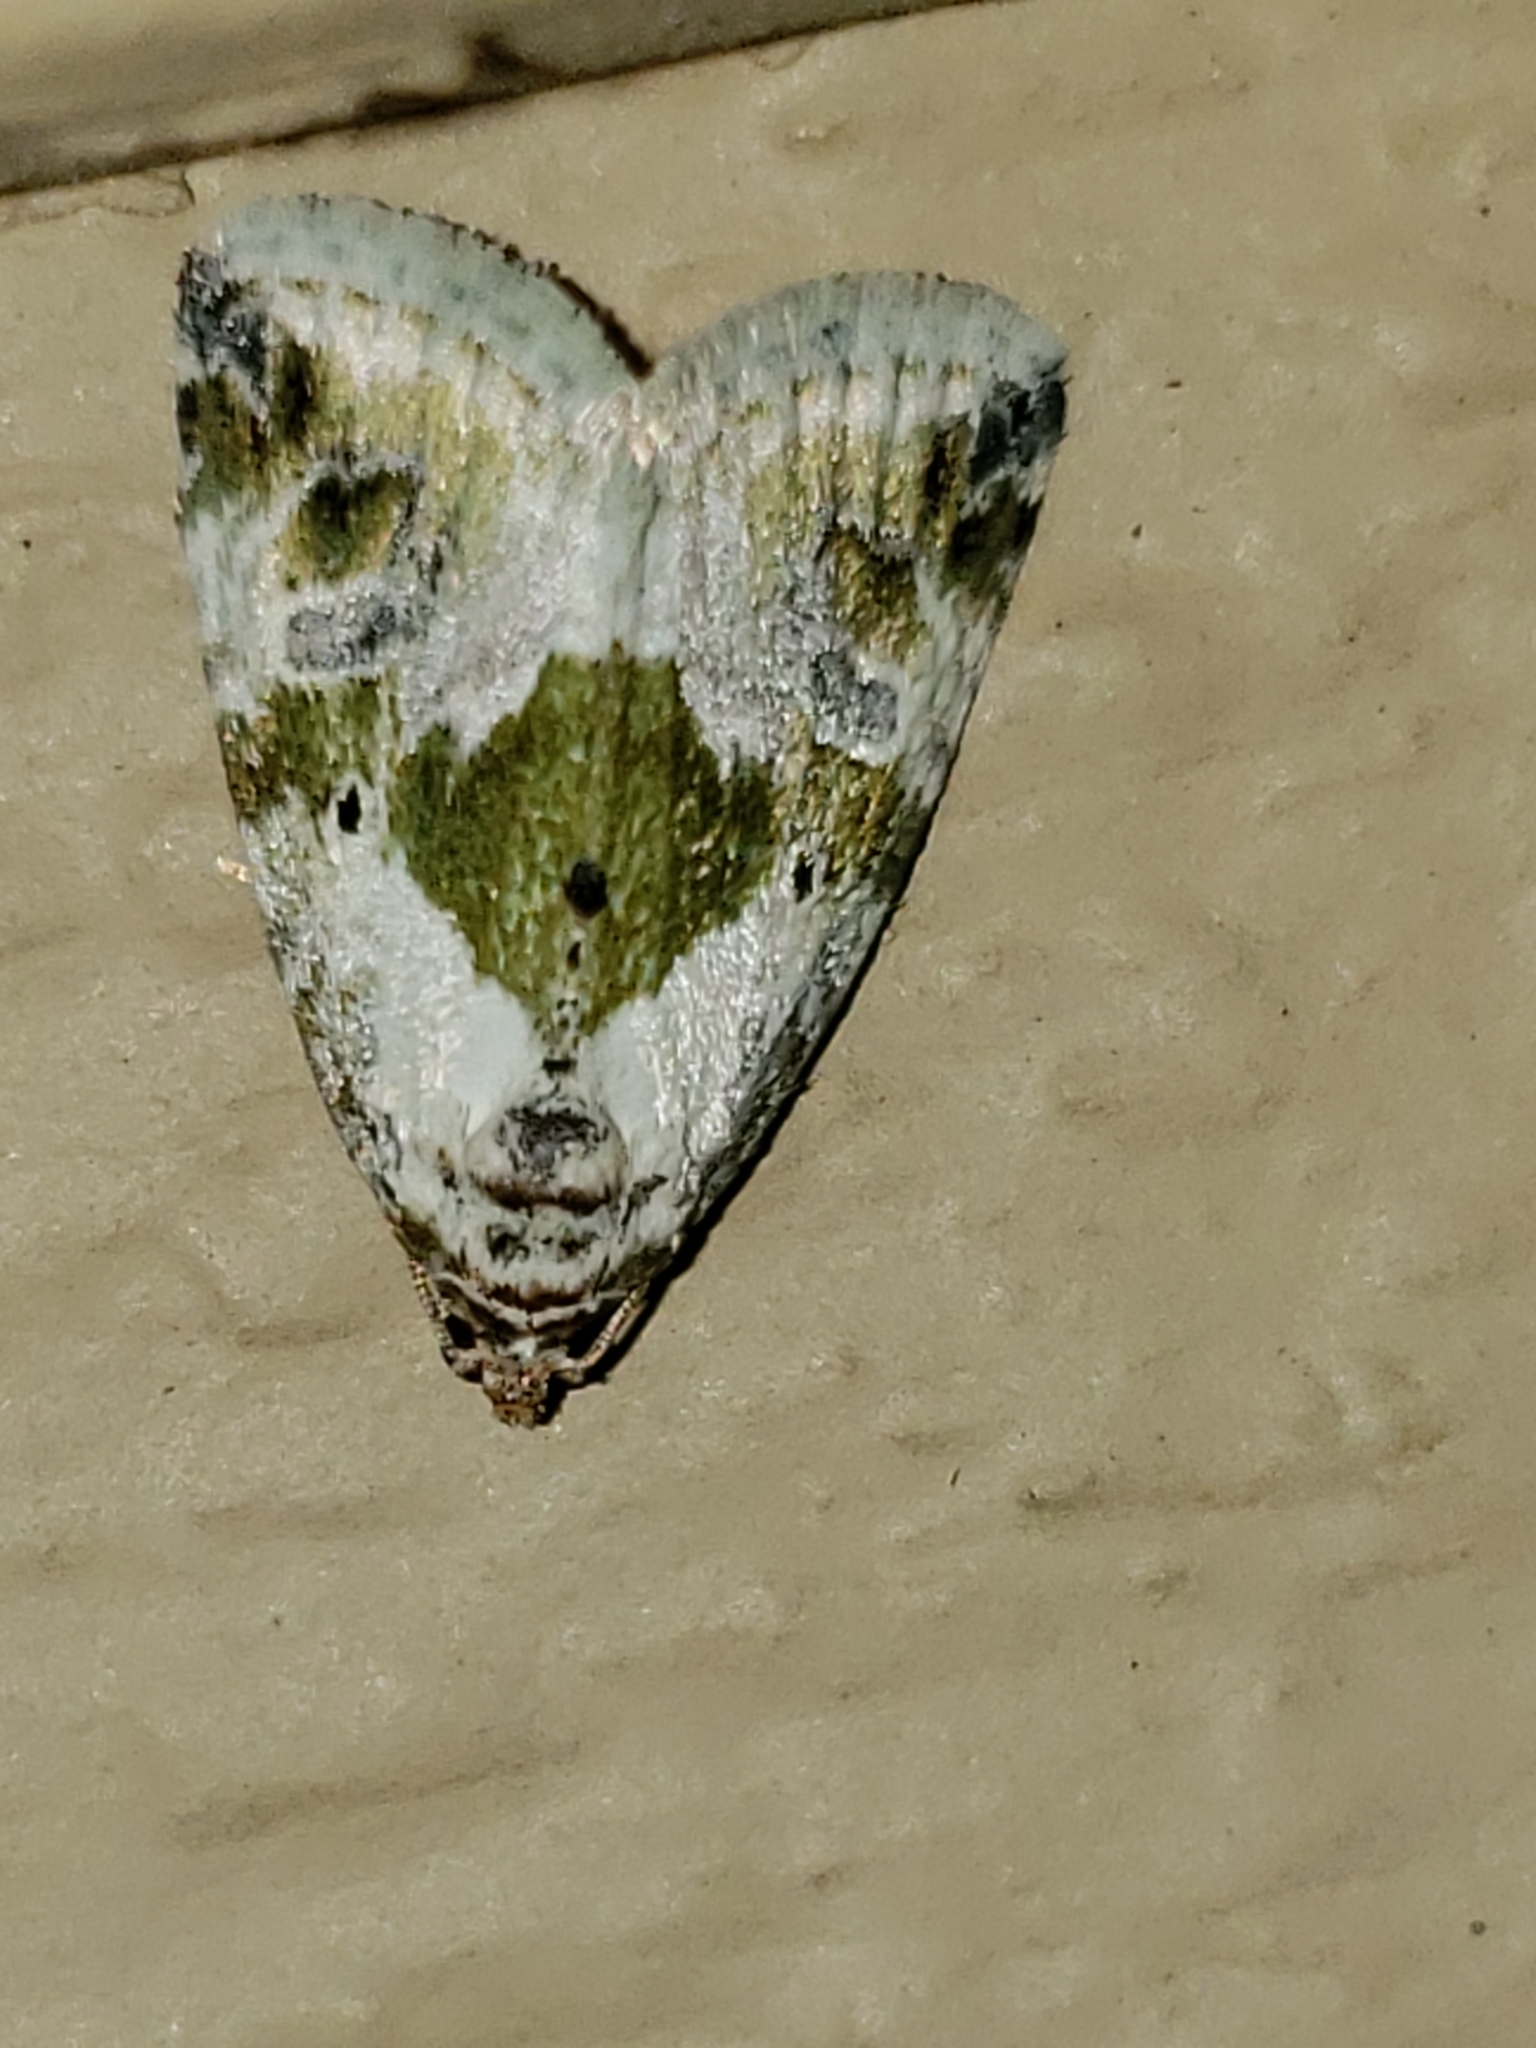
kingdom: Animalia
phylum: Arthropoda
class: Insecta
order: Lepidoptera
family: Noctuidae
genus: Maliattha
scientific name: Maliattha synochitis
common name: Black-dotted glyph
